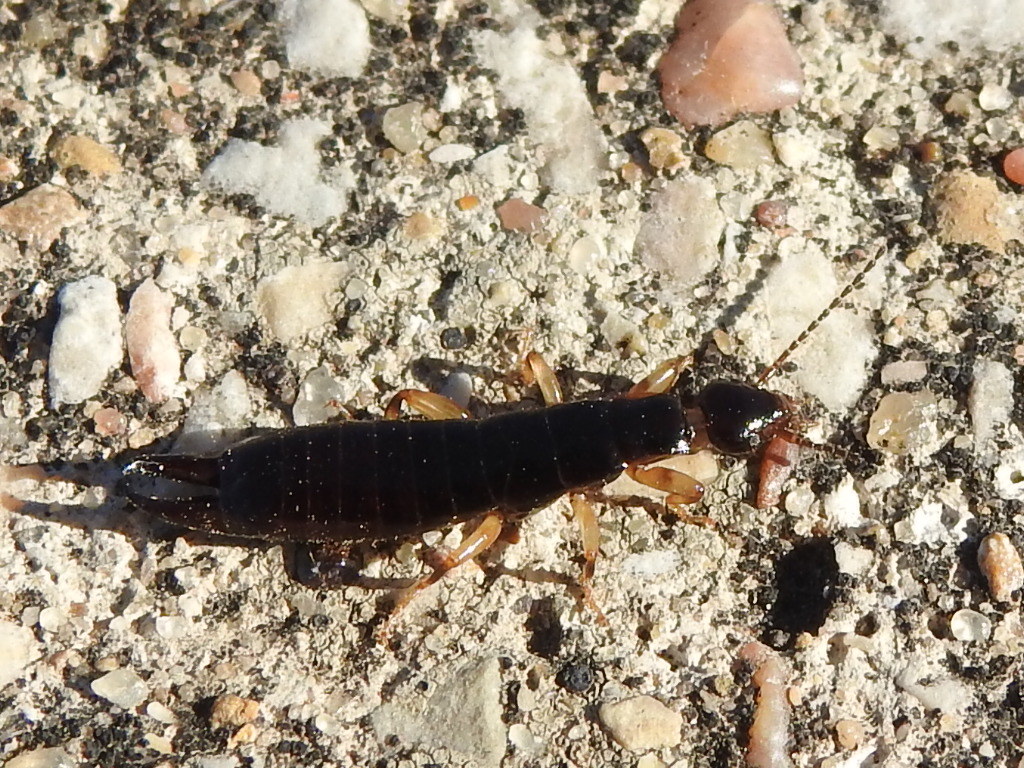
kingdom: Animalia
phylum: Arthropoda
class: Insecta
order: Dermaptera
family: Anisolabididae
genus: Euborellia
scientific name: Euborellia annulipes
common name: Ringlegged earwig
